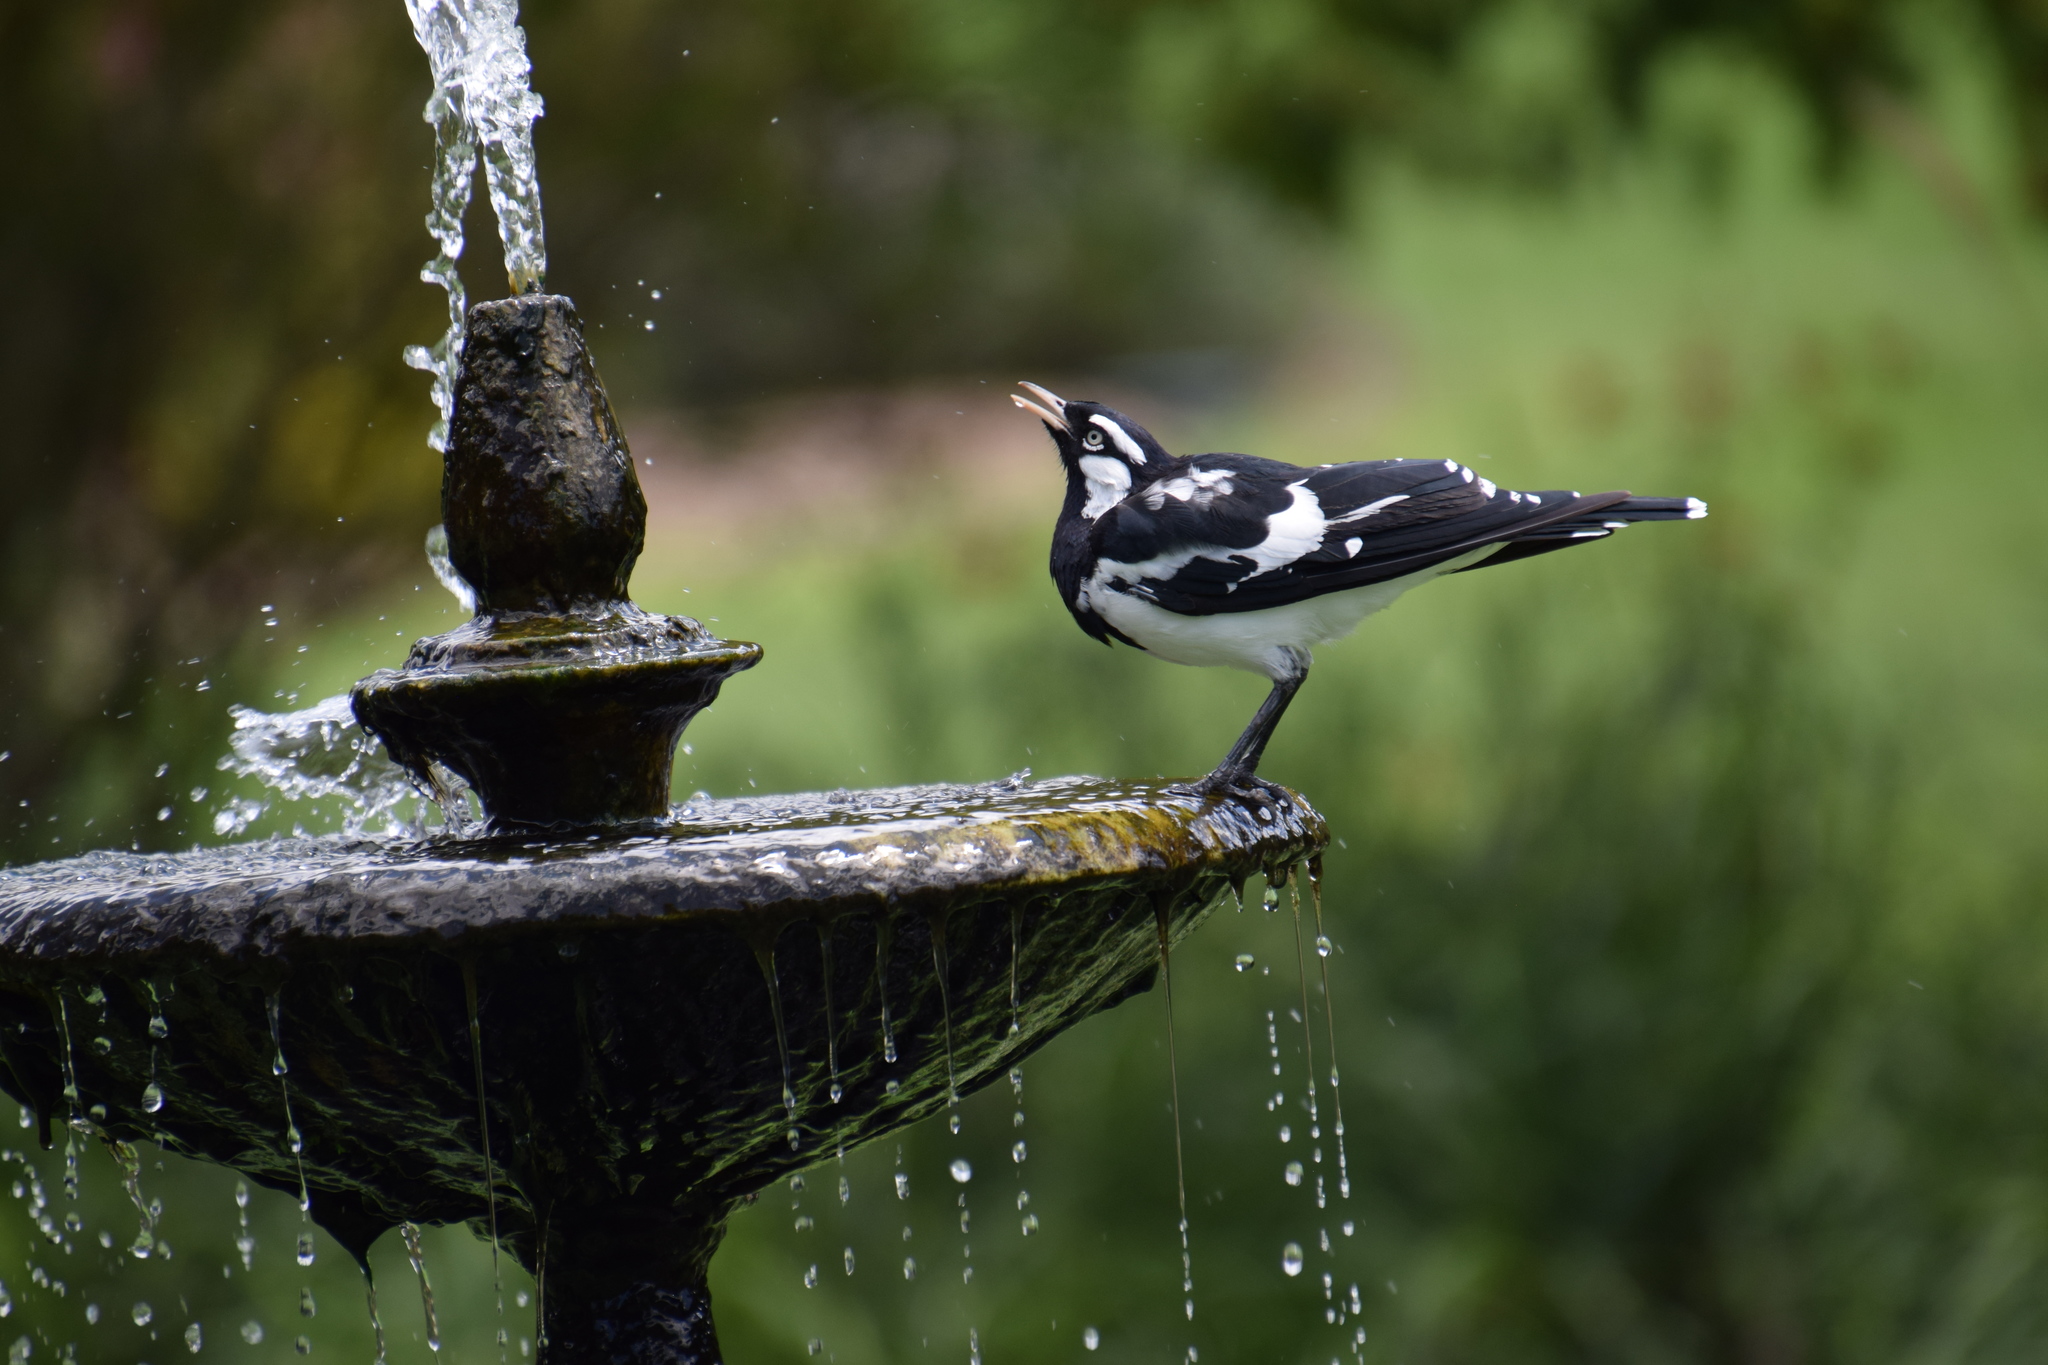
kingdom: Animalia
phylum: Chordata
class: Aves
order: Passeriformes
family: Monarchidae
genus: Grallina
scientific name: Grallina cyanoleuca
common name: Magpie-lark
